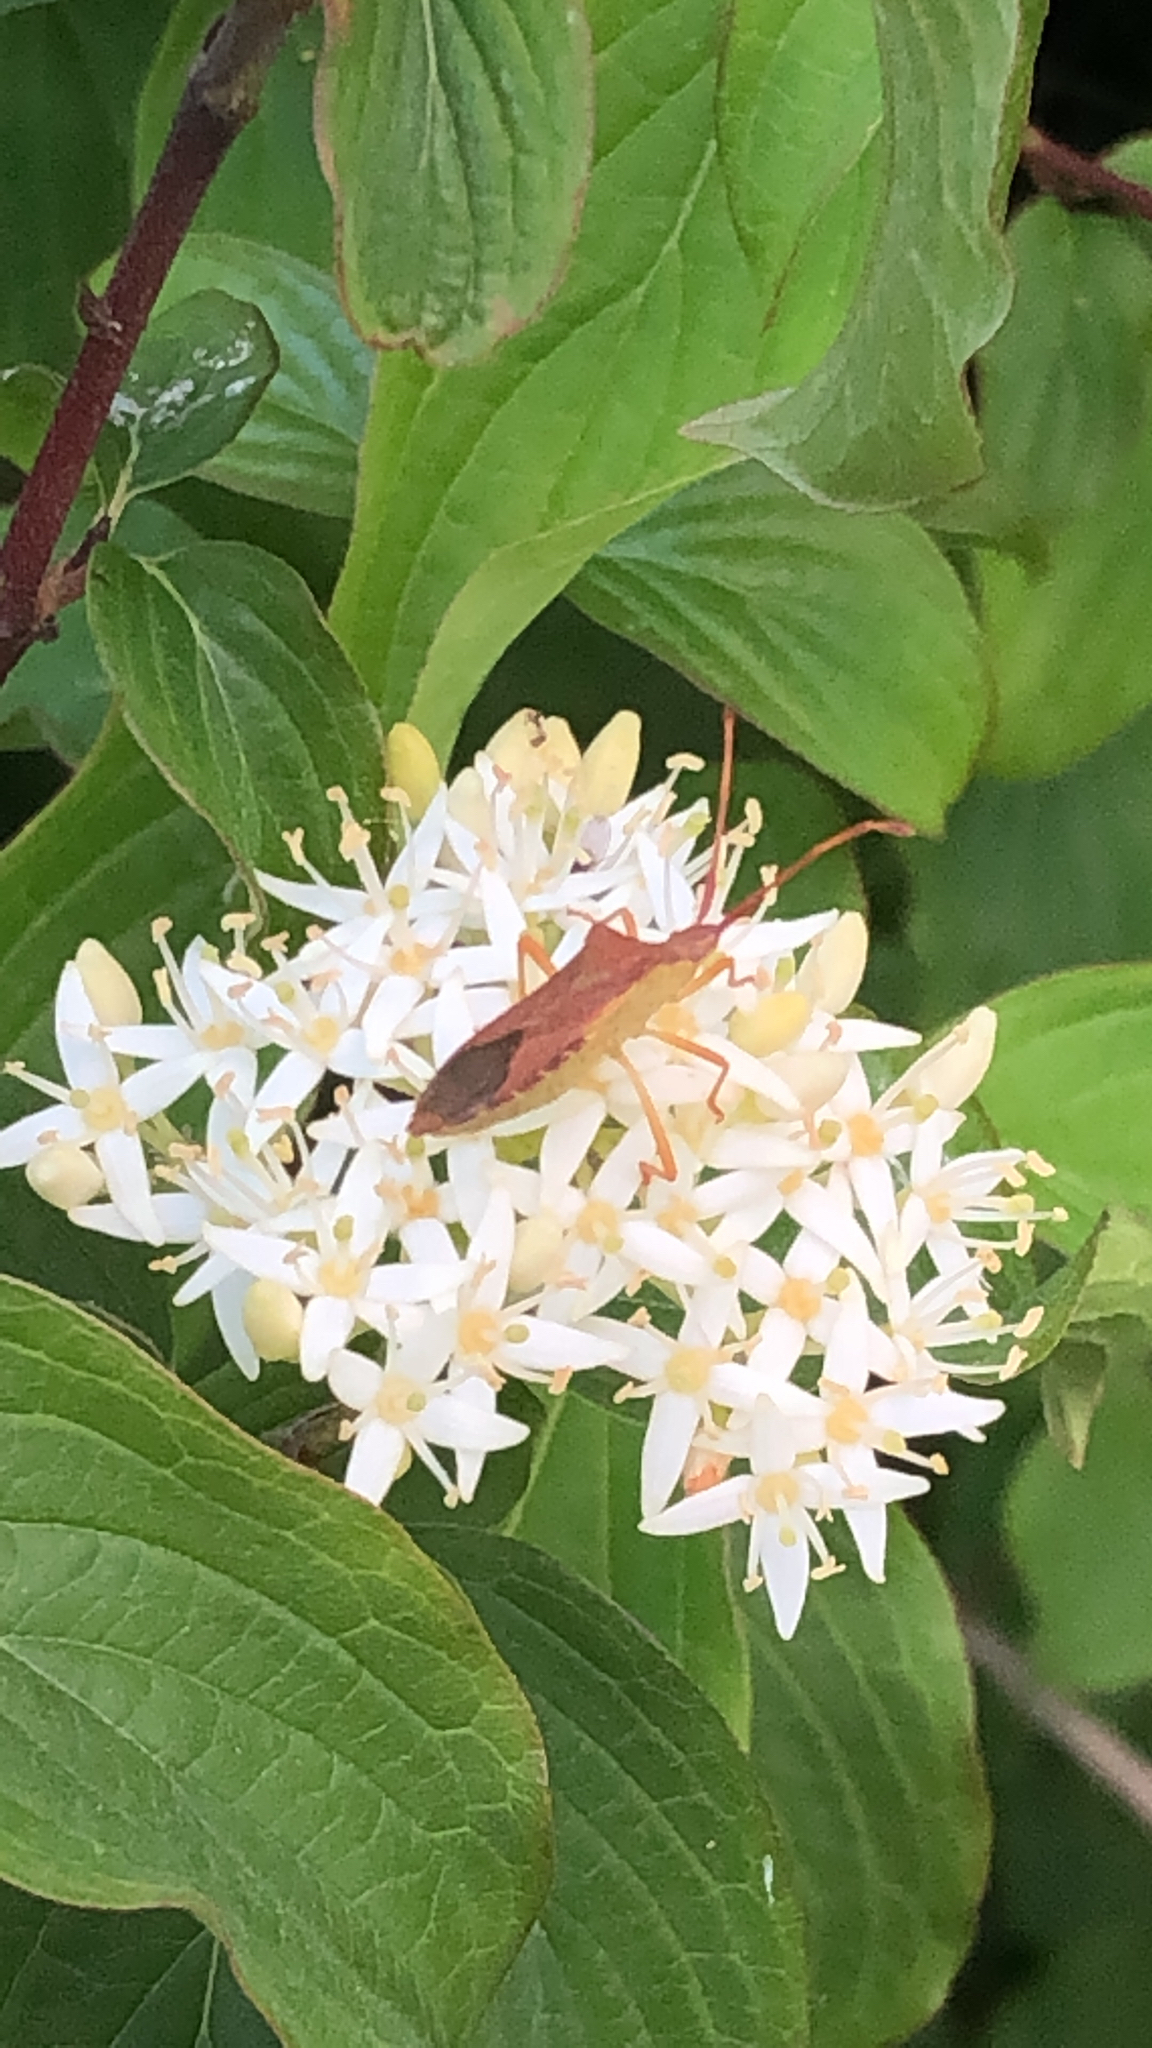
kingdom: Animalia
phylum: Arthropoda
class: Insecta
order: Hemiptera
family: Coreidae
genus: Gonocerus
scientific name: Gonocerus acuteangulatus
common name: Box bug
